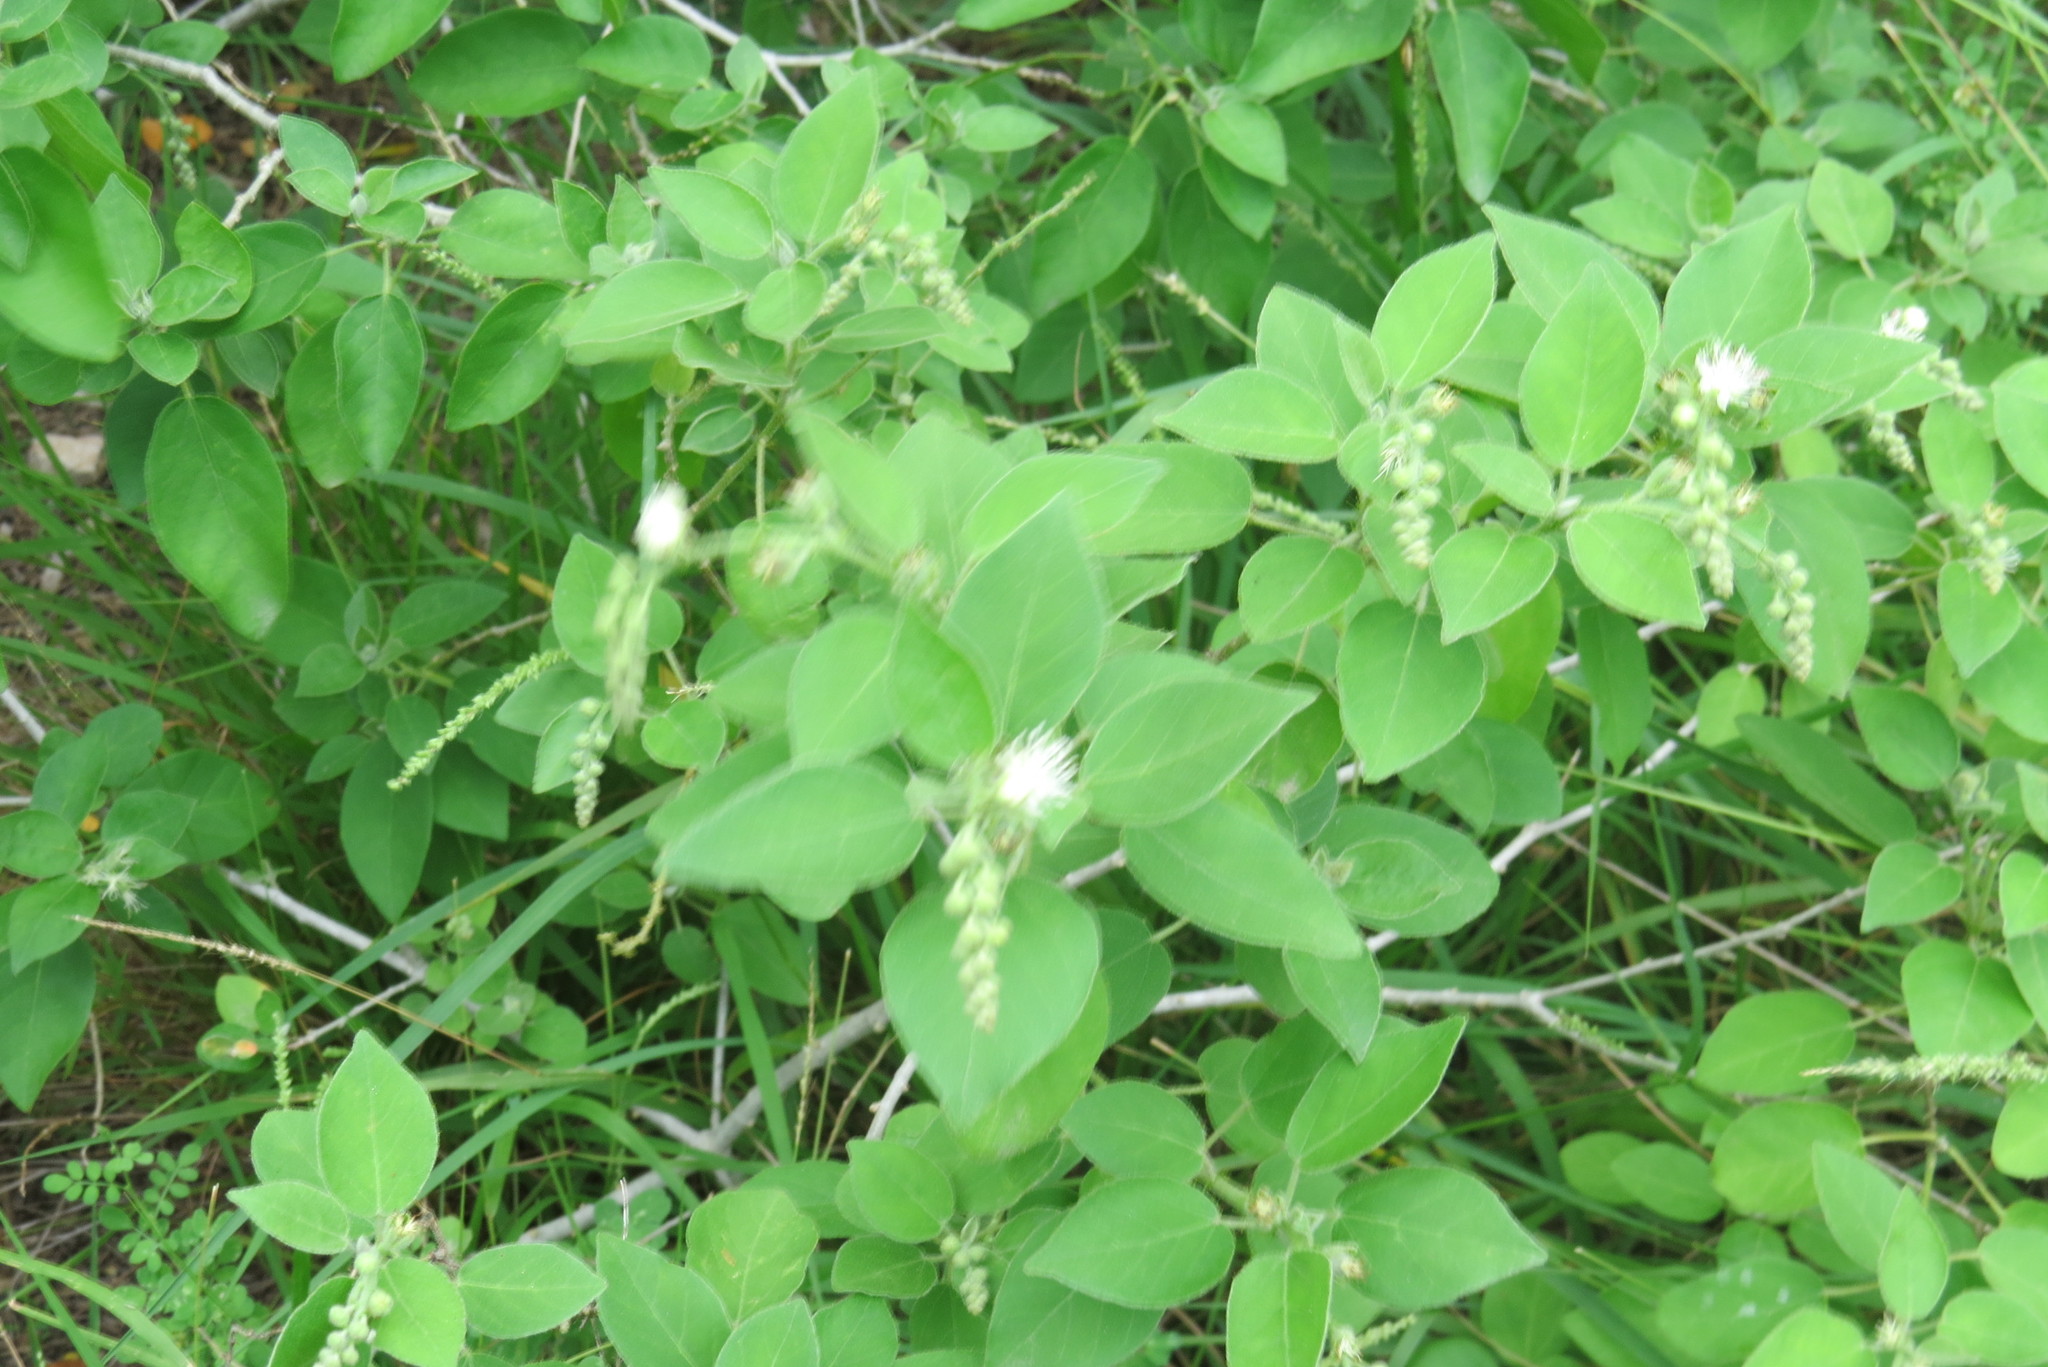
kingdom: Plantae
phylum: Tracheophyta
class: Magnoliopsida
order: Malpighiales
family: Euphorbiaceae
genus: Croton
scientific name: Croton humilis
